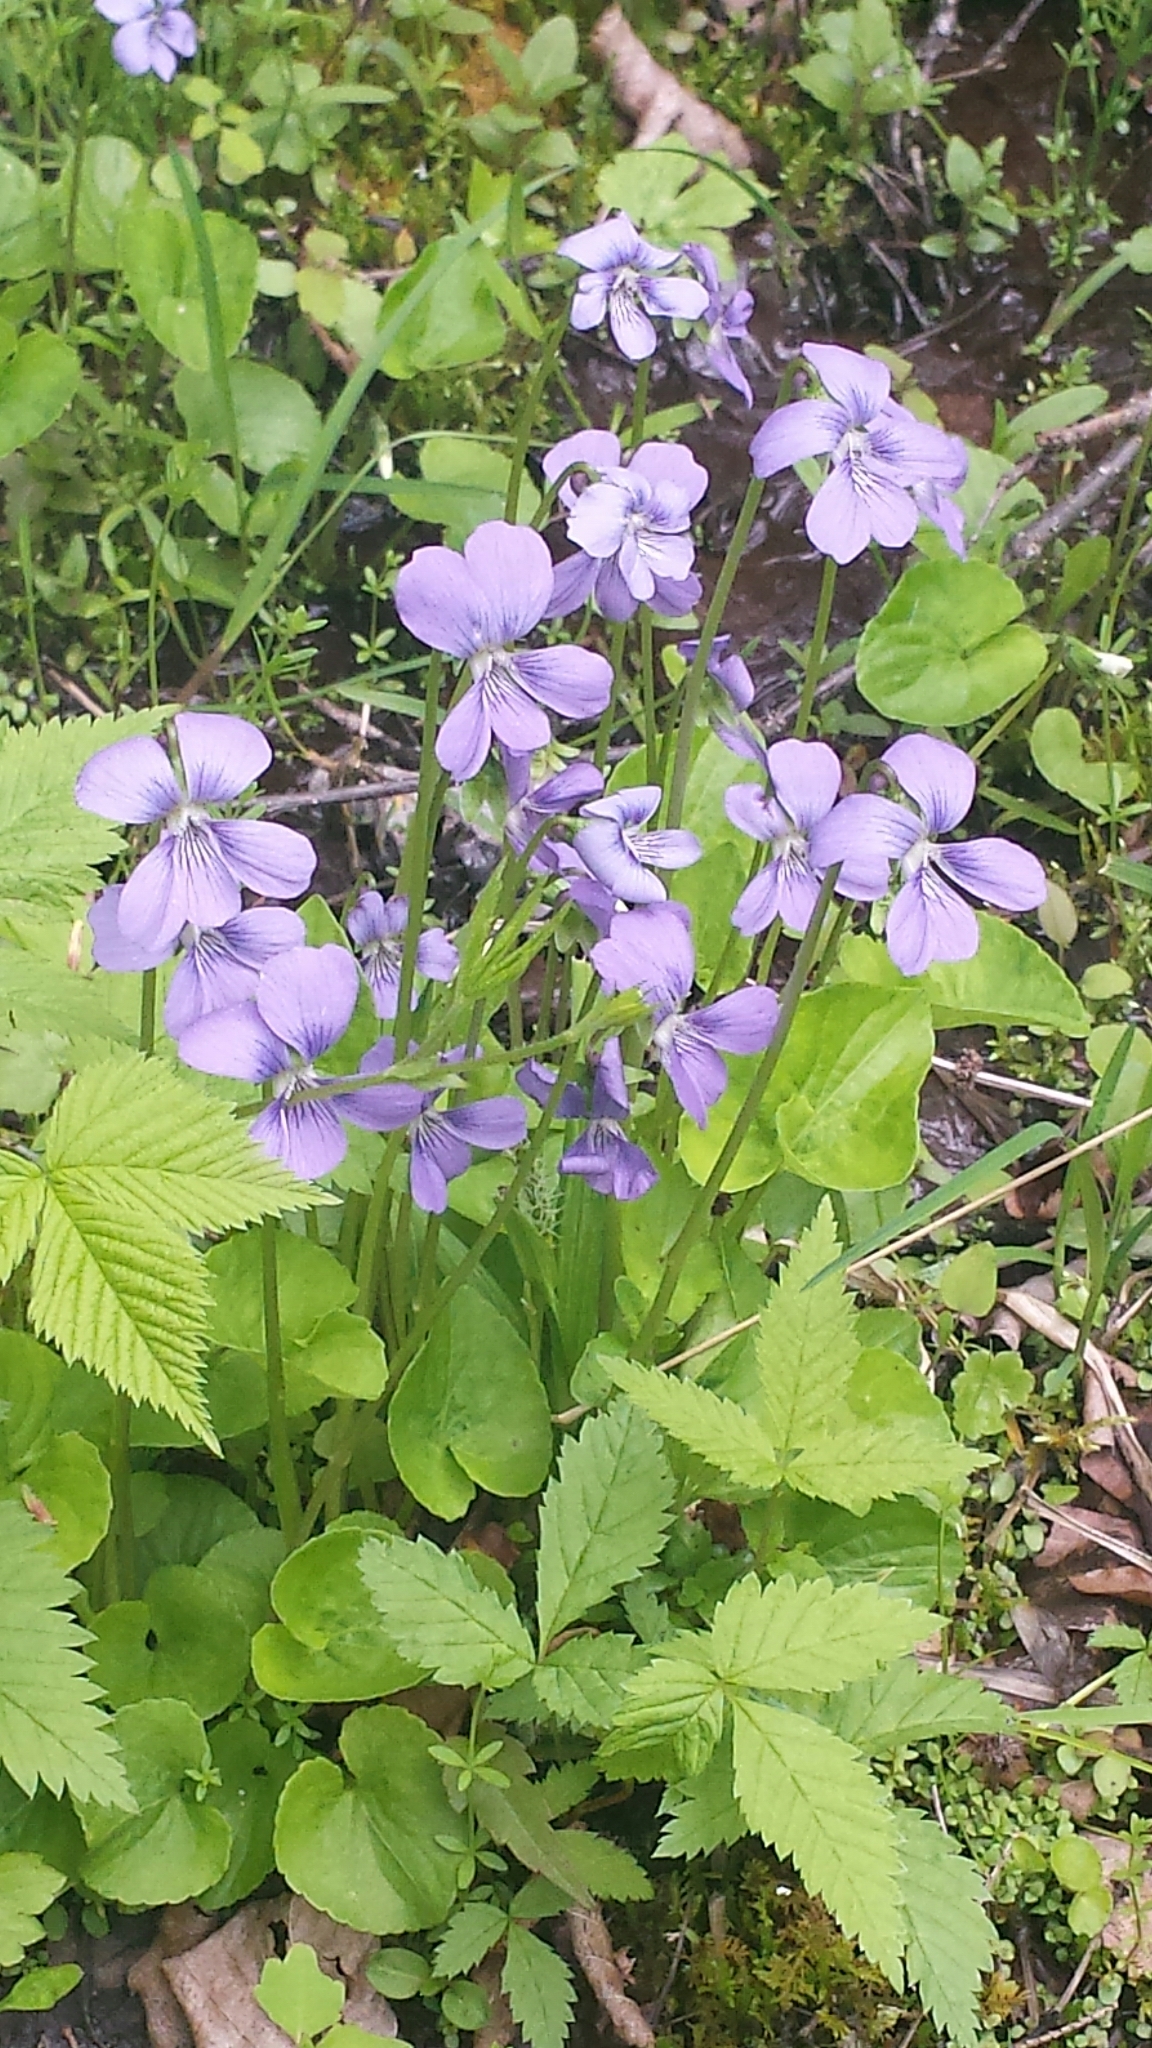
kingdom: Plantae
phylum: Tracheophyta
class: Magnoliopsida
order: Malpighiales
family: Violaceae
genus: Viola
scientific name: Viola cucullata
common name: Marsh blue violet
